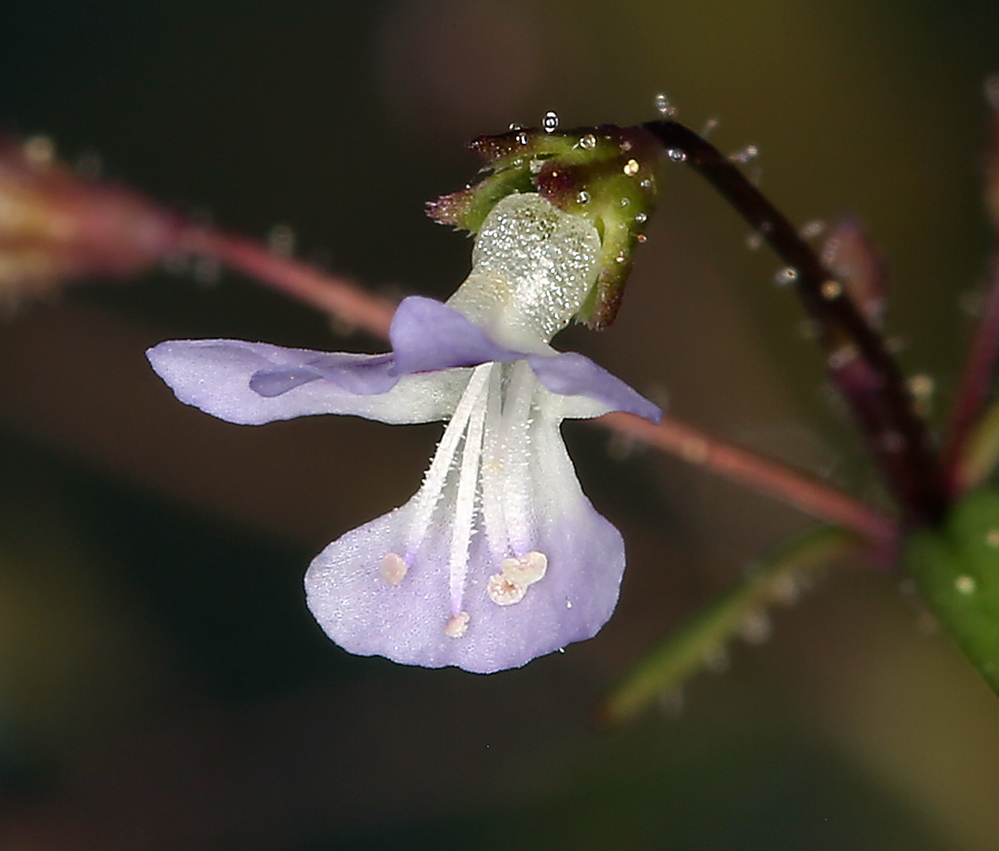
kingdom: Plantae
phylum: Tracheophyta
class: Magnoliopsida
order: Lamiales
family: Plantaginaceae
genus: Tonella
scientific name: Tonella tenella
